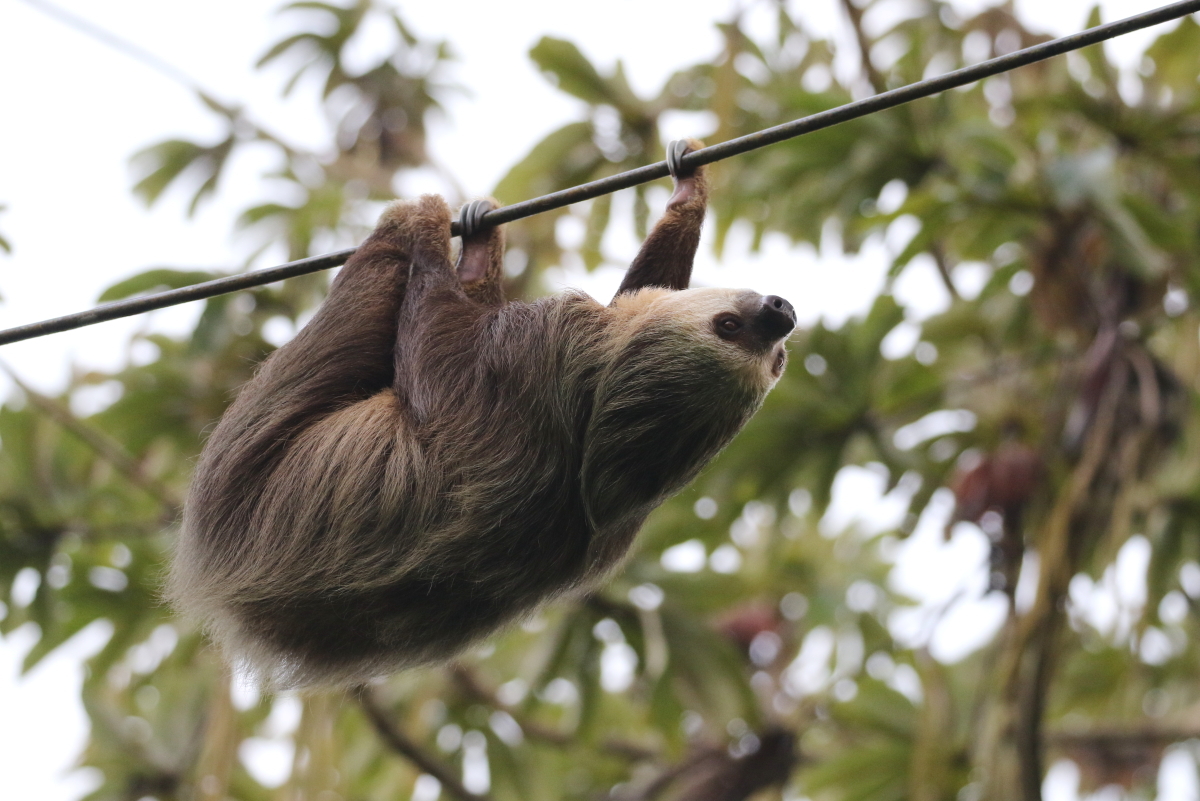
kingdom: Animalia
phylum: Chordata
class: Mammalia
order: Pilosa
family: Megalonychidae
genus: Choloepus
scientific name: Choloepus hoffmanni
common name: Hoffmann's two-toed sloth
